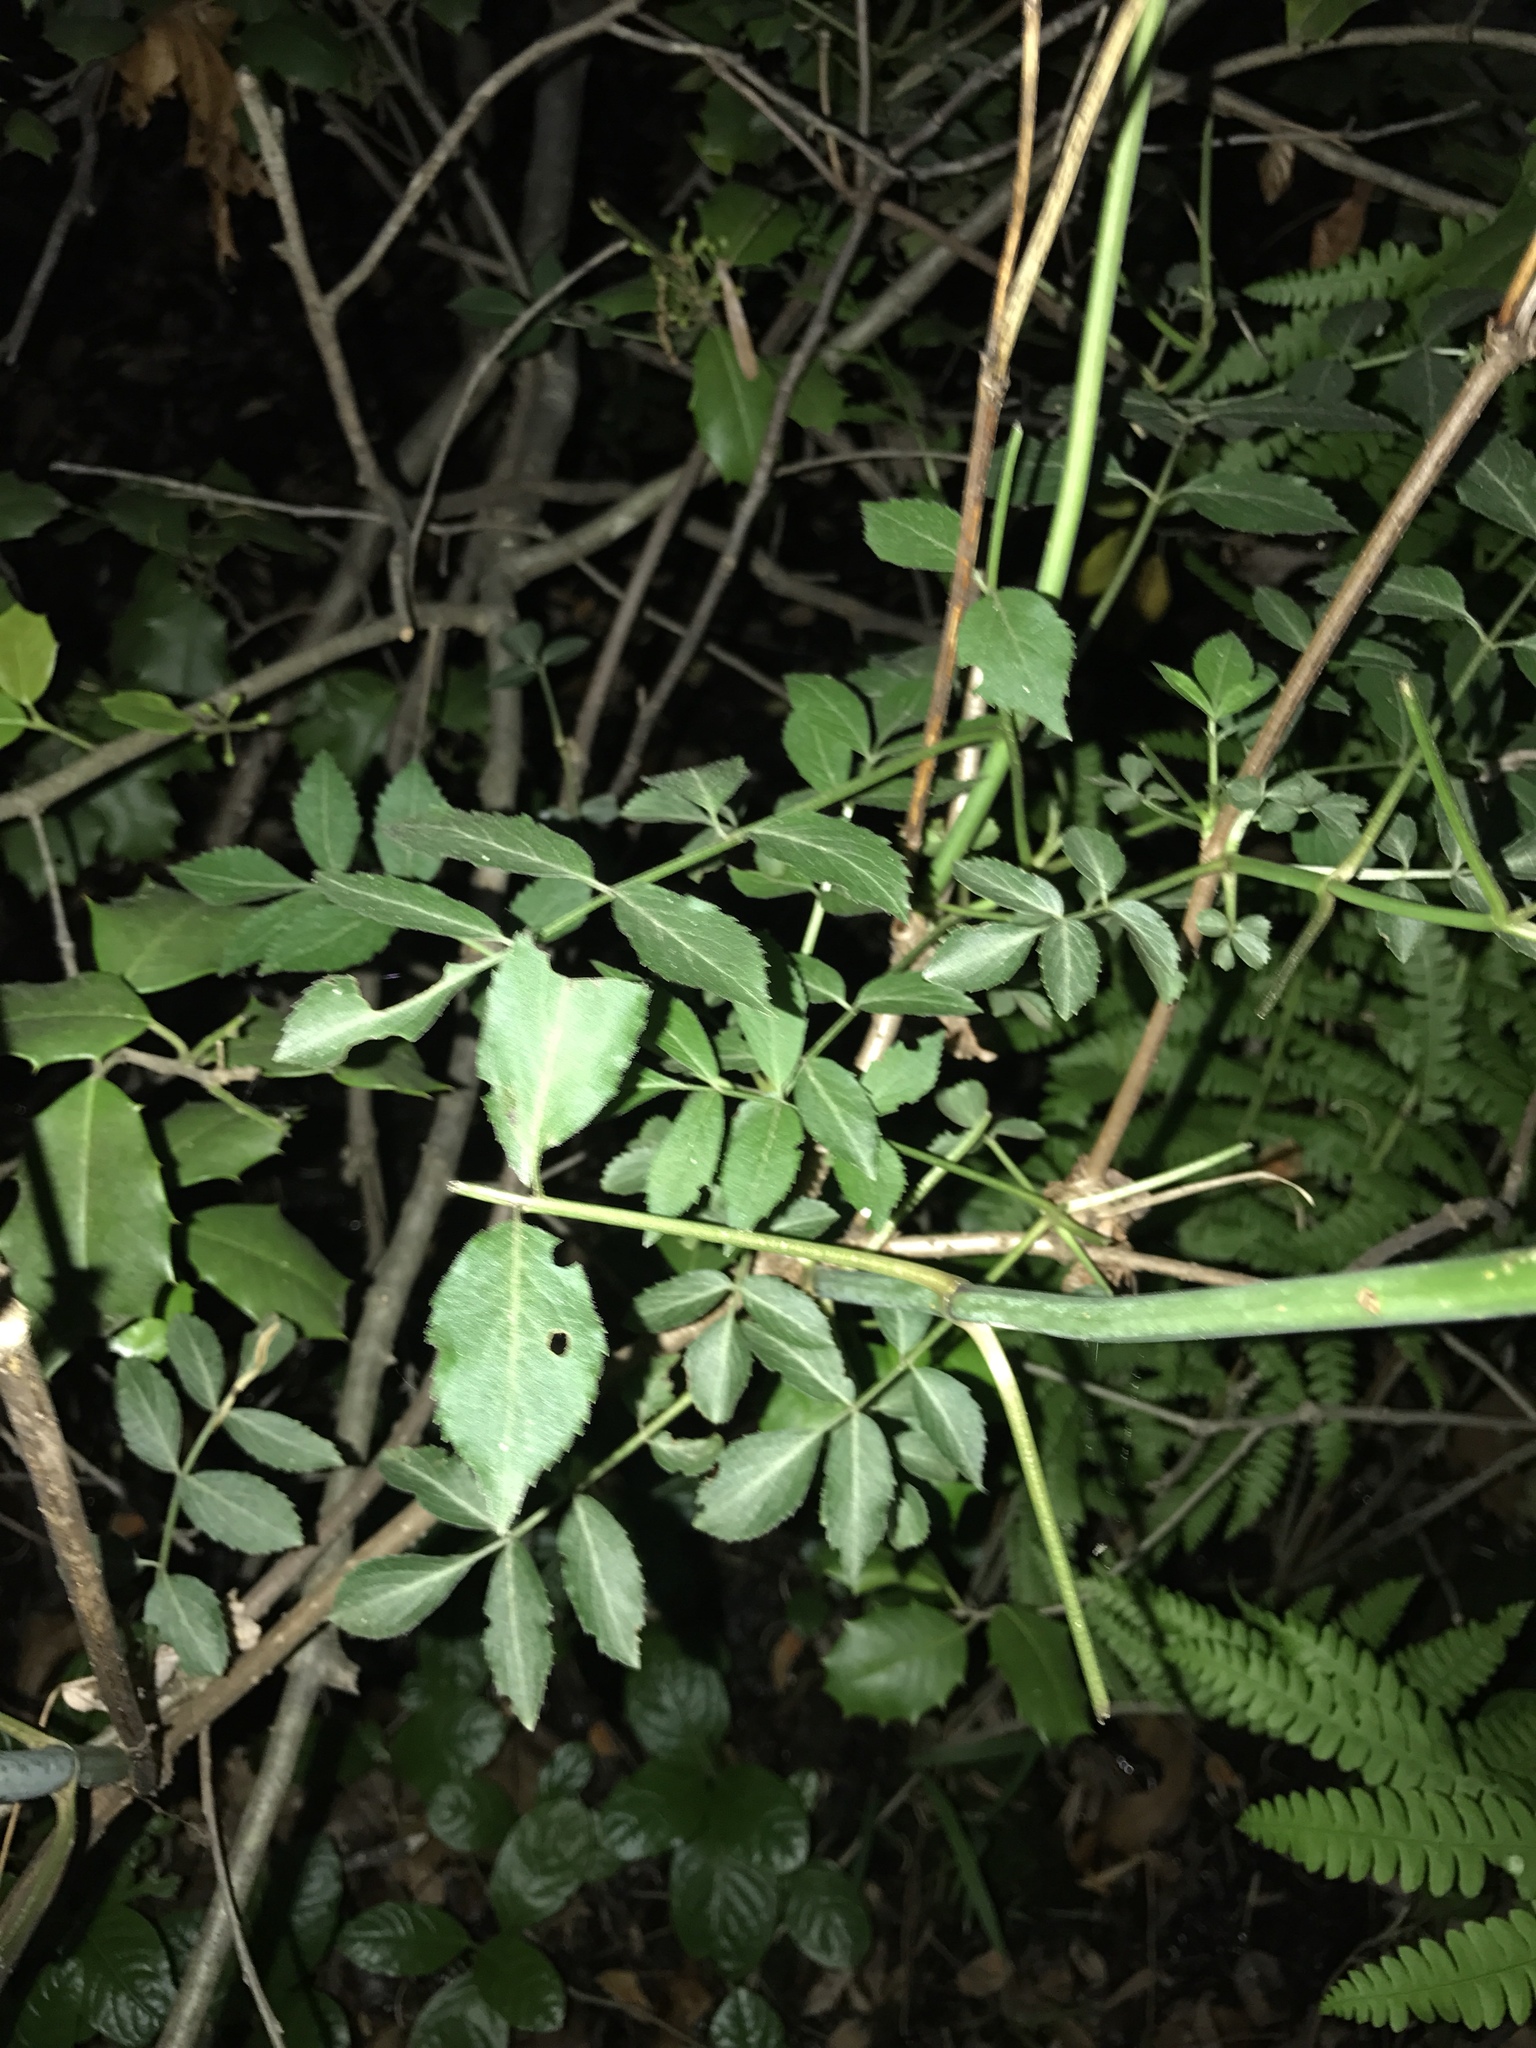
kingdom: Plantae
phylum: Tracheophyta
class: Magnoliopsida
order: Dipsacales
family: Viburnaceae
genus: Sambucus
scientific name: Sambucus canadensis
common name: American elder
